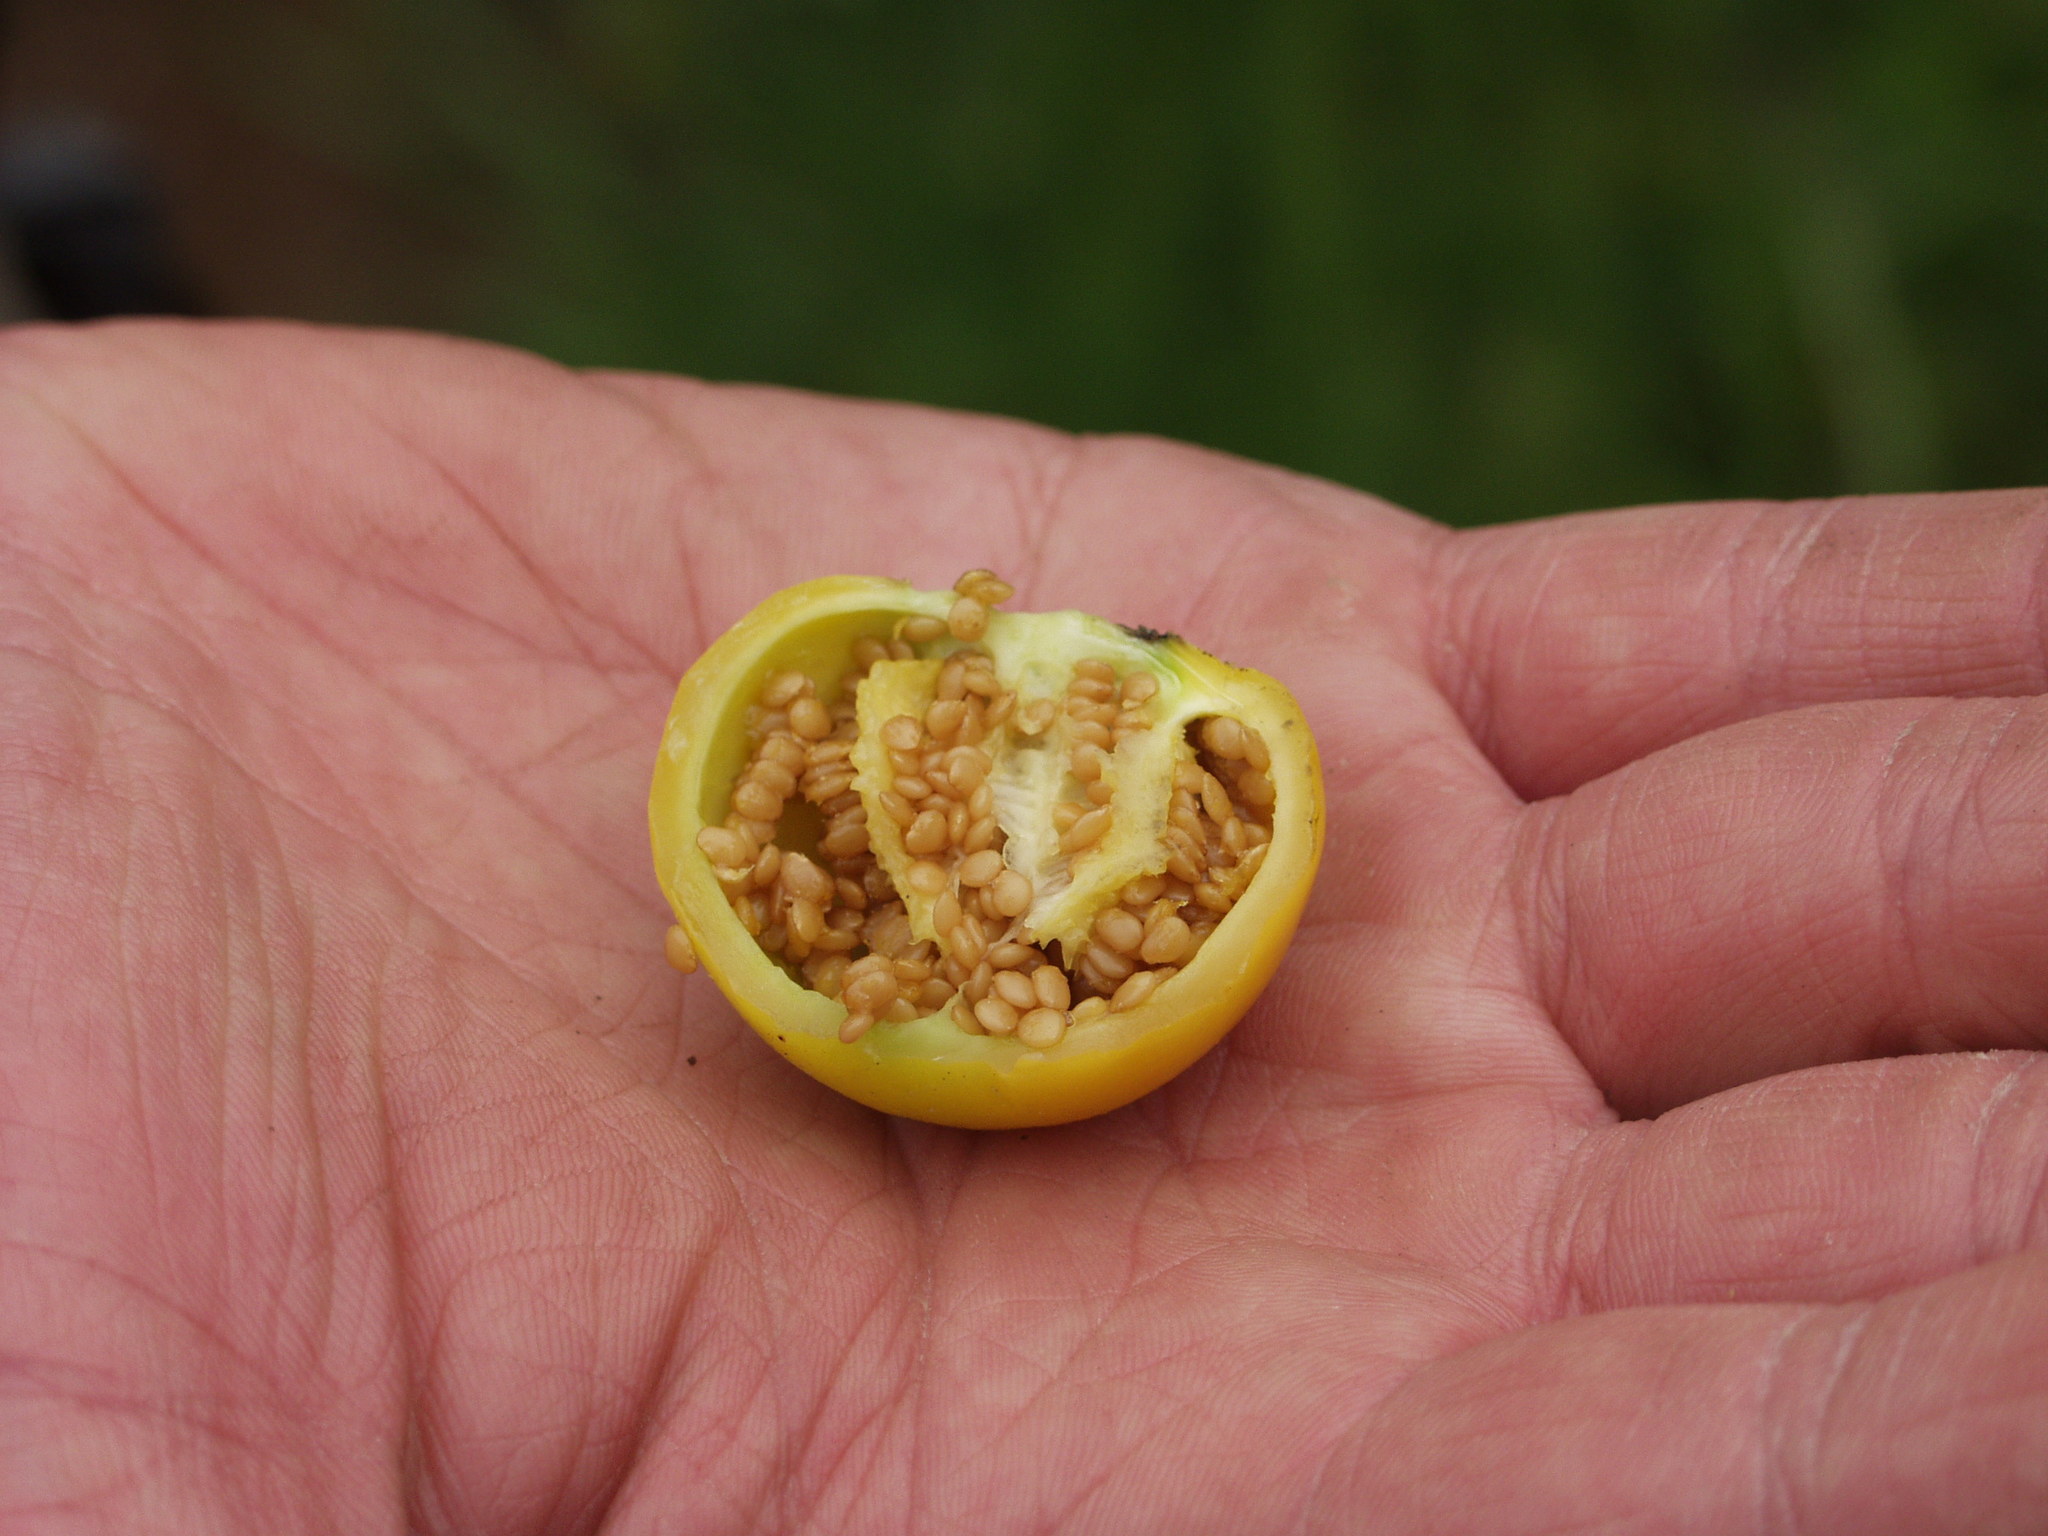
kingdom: Plantae
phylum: Tracheophyta
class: Magnoliopsida
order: Solanales
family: Solanaceae
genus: Solanum
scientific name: Solanum marginatum
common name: Purple african nightshade
